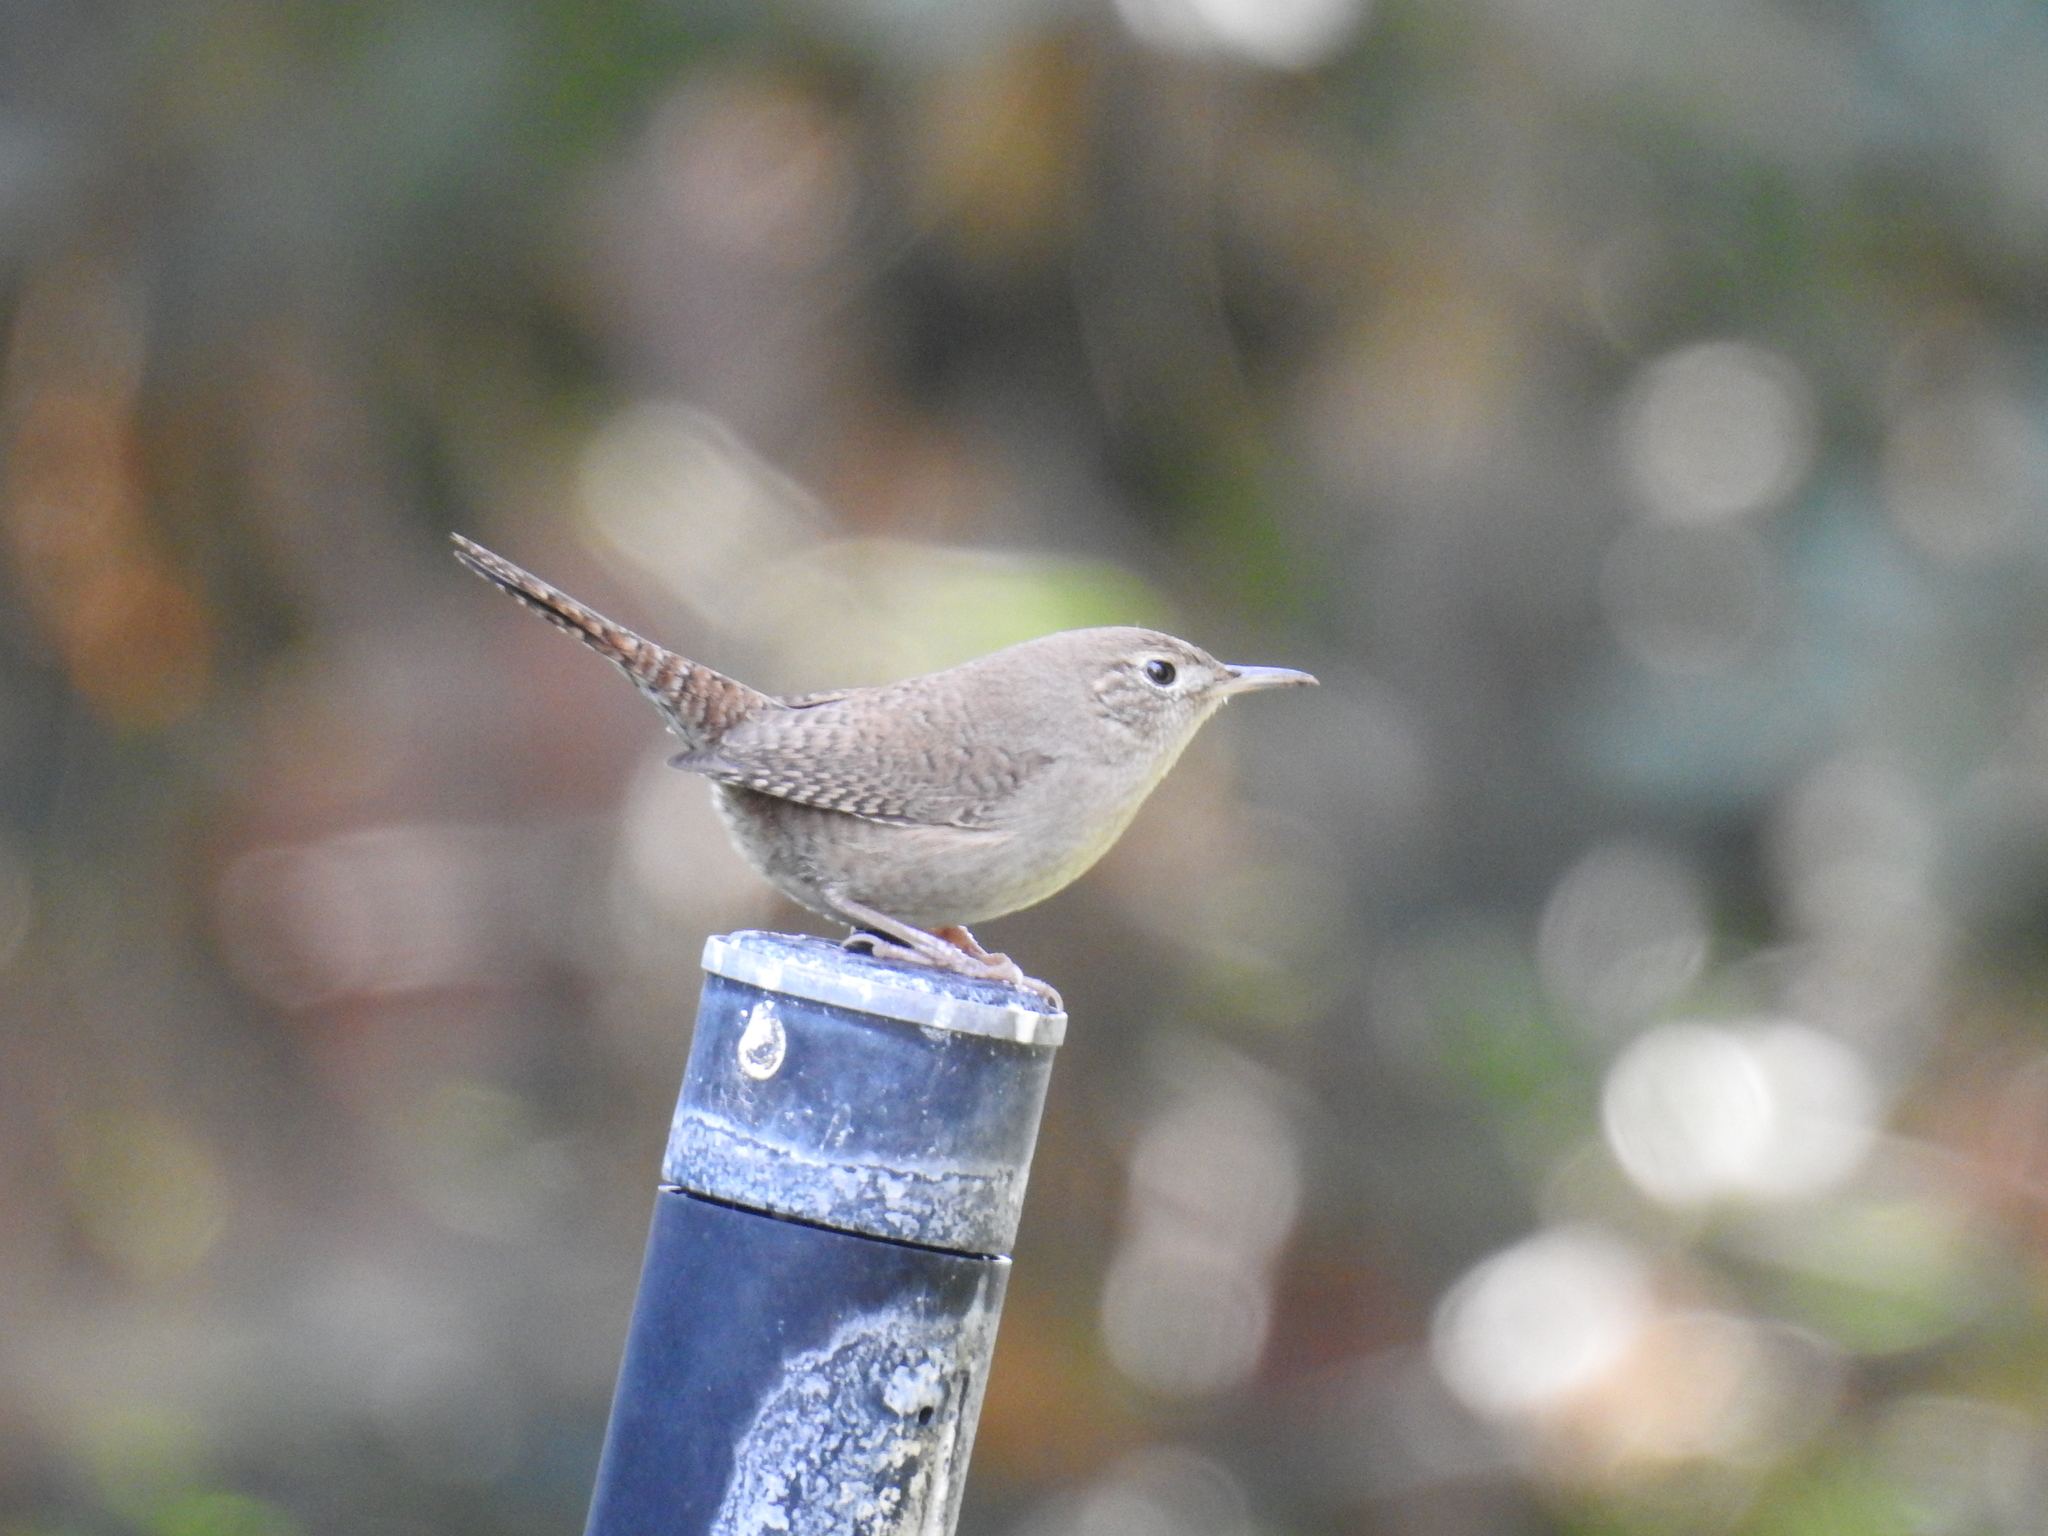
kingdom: Animalia
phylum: Chordata
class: Aves
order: Passeriformes
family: Troglodytidae
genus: Troglodytes
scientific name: Troglodytes aedon
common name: House wren
